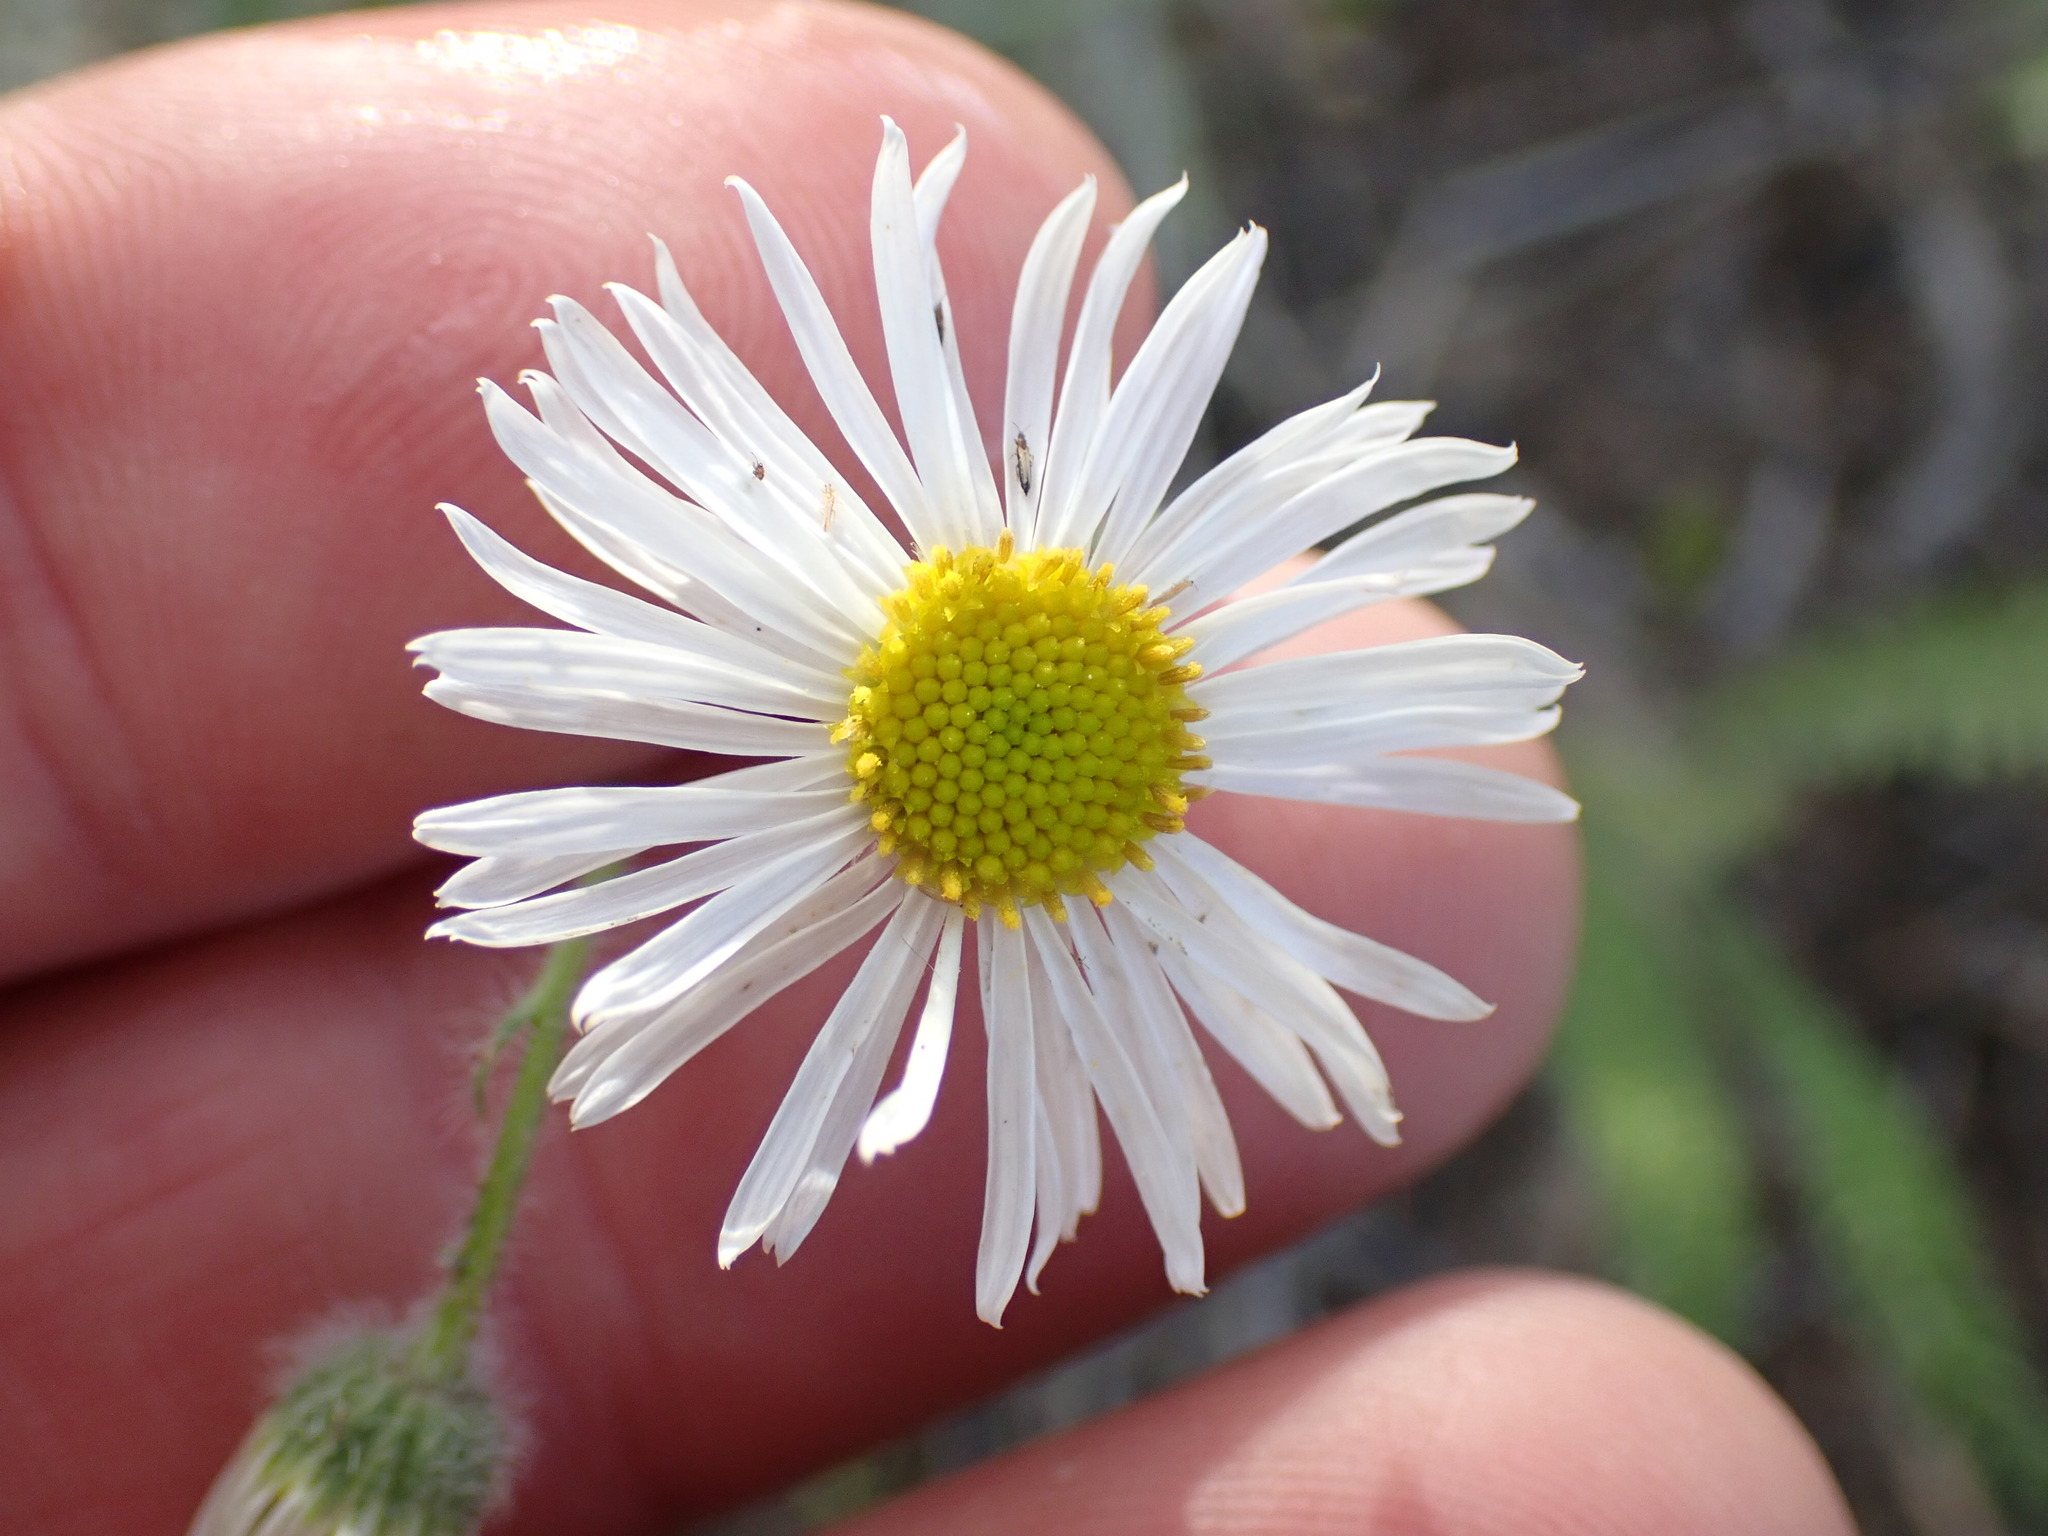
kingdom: Plantae
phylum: Tracheophyta
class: Magnoliopsida
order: Asterales
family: Asteraceae
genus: Erigeron
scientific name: Erigeron pumilus
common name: Shaggy fleabane
